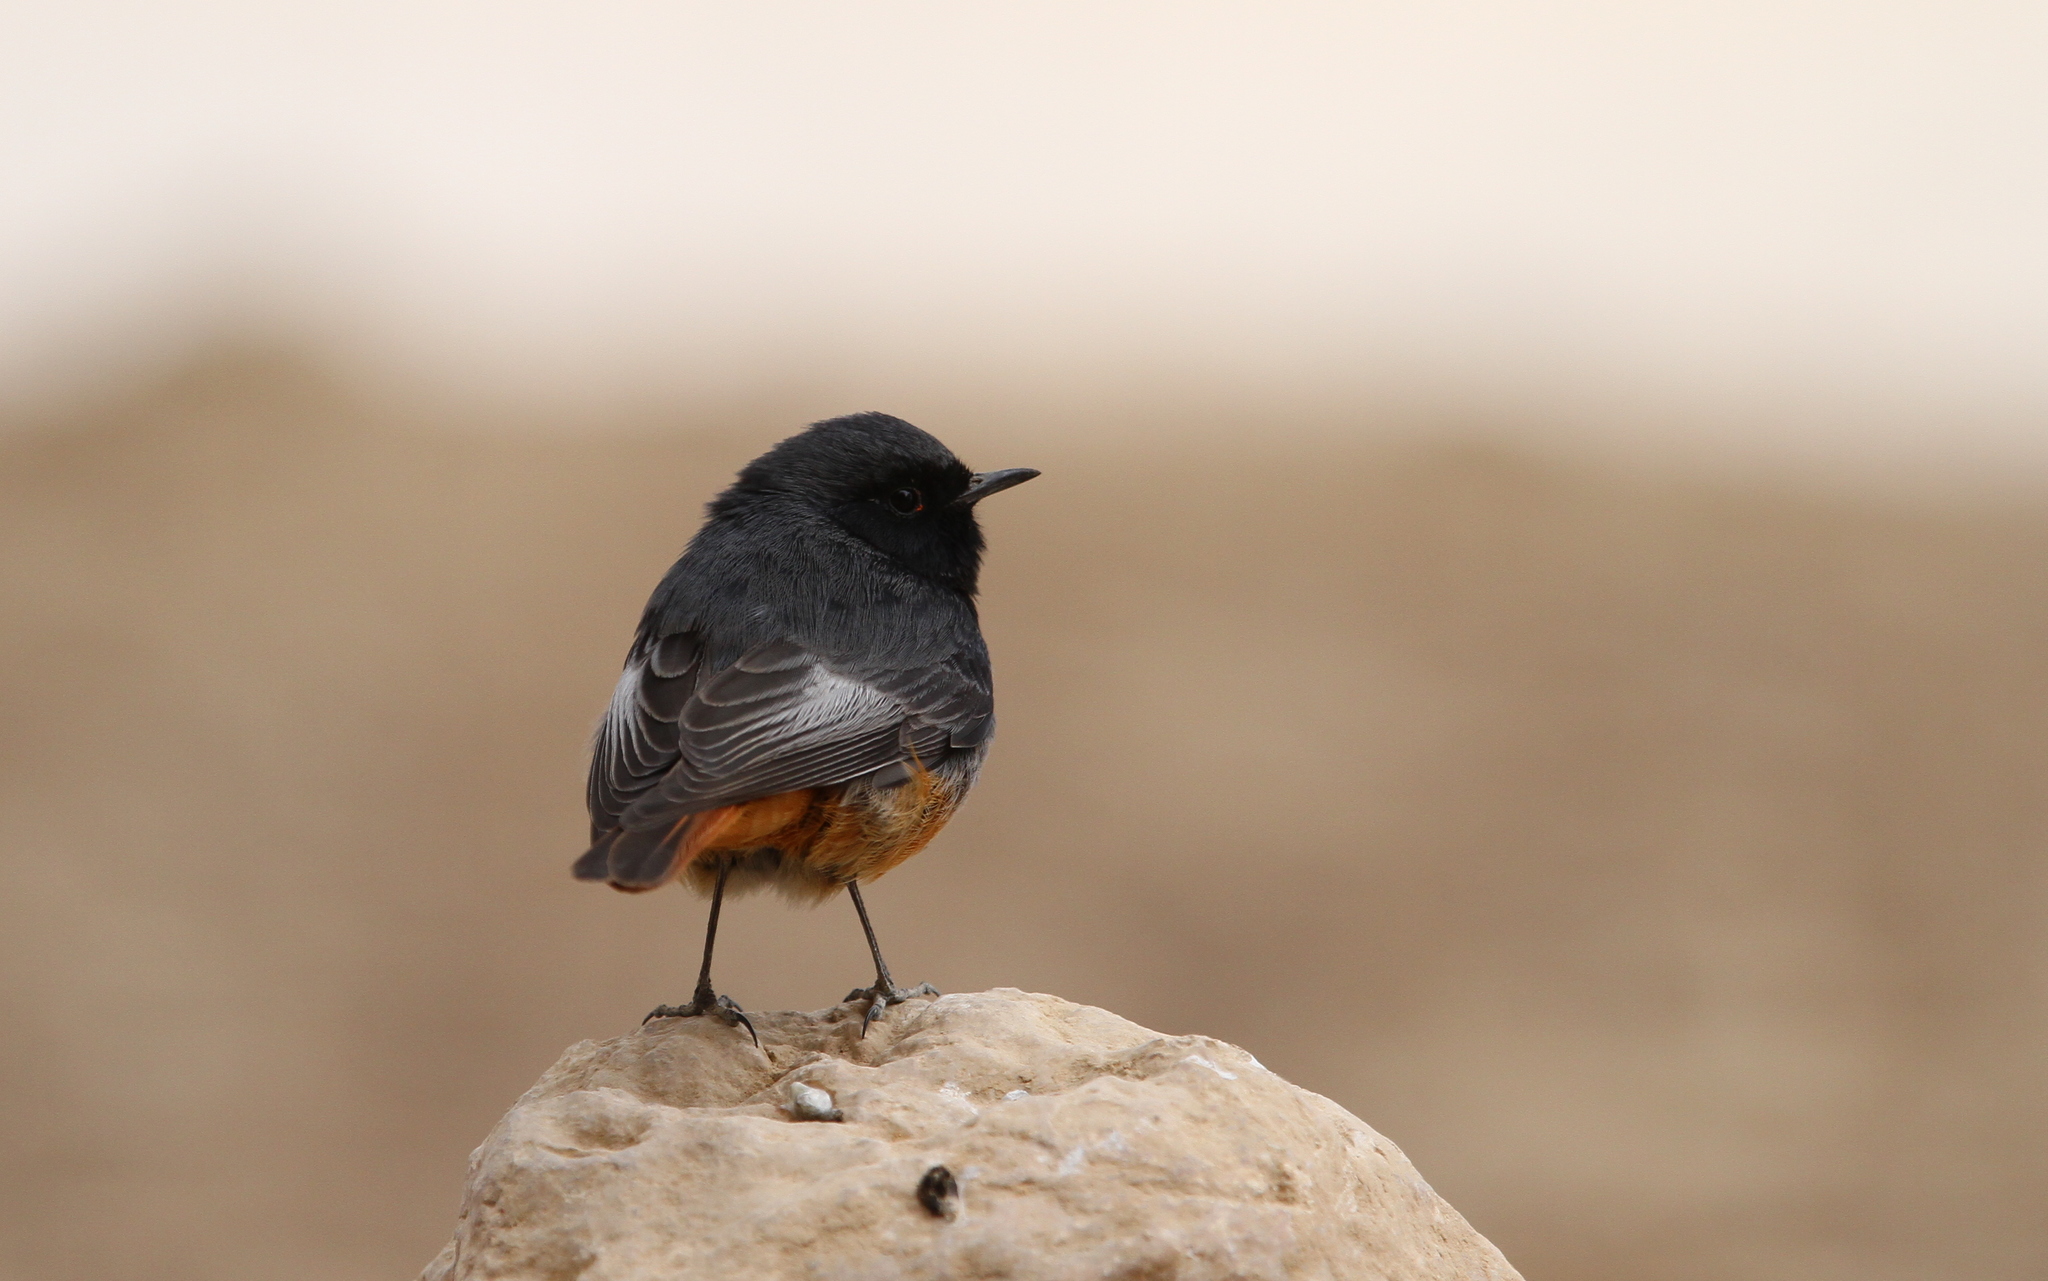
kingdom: Animalia
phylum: Chordata
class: Aves
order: Passeriformes
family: Muscicapidae
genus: Phoenicurus
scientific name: Phoenicurus ochruros
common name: Black redstart
